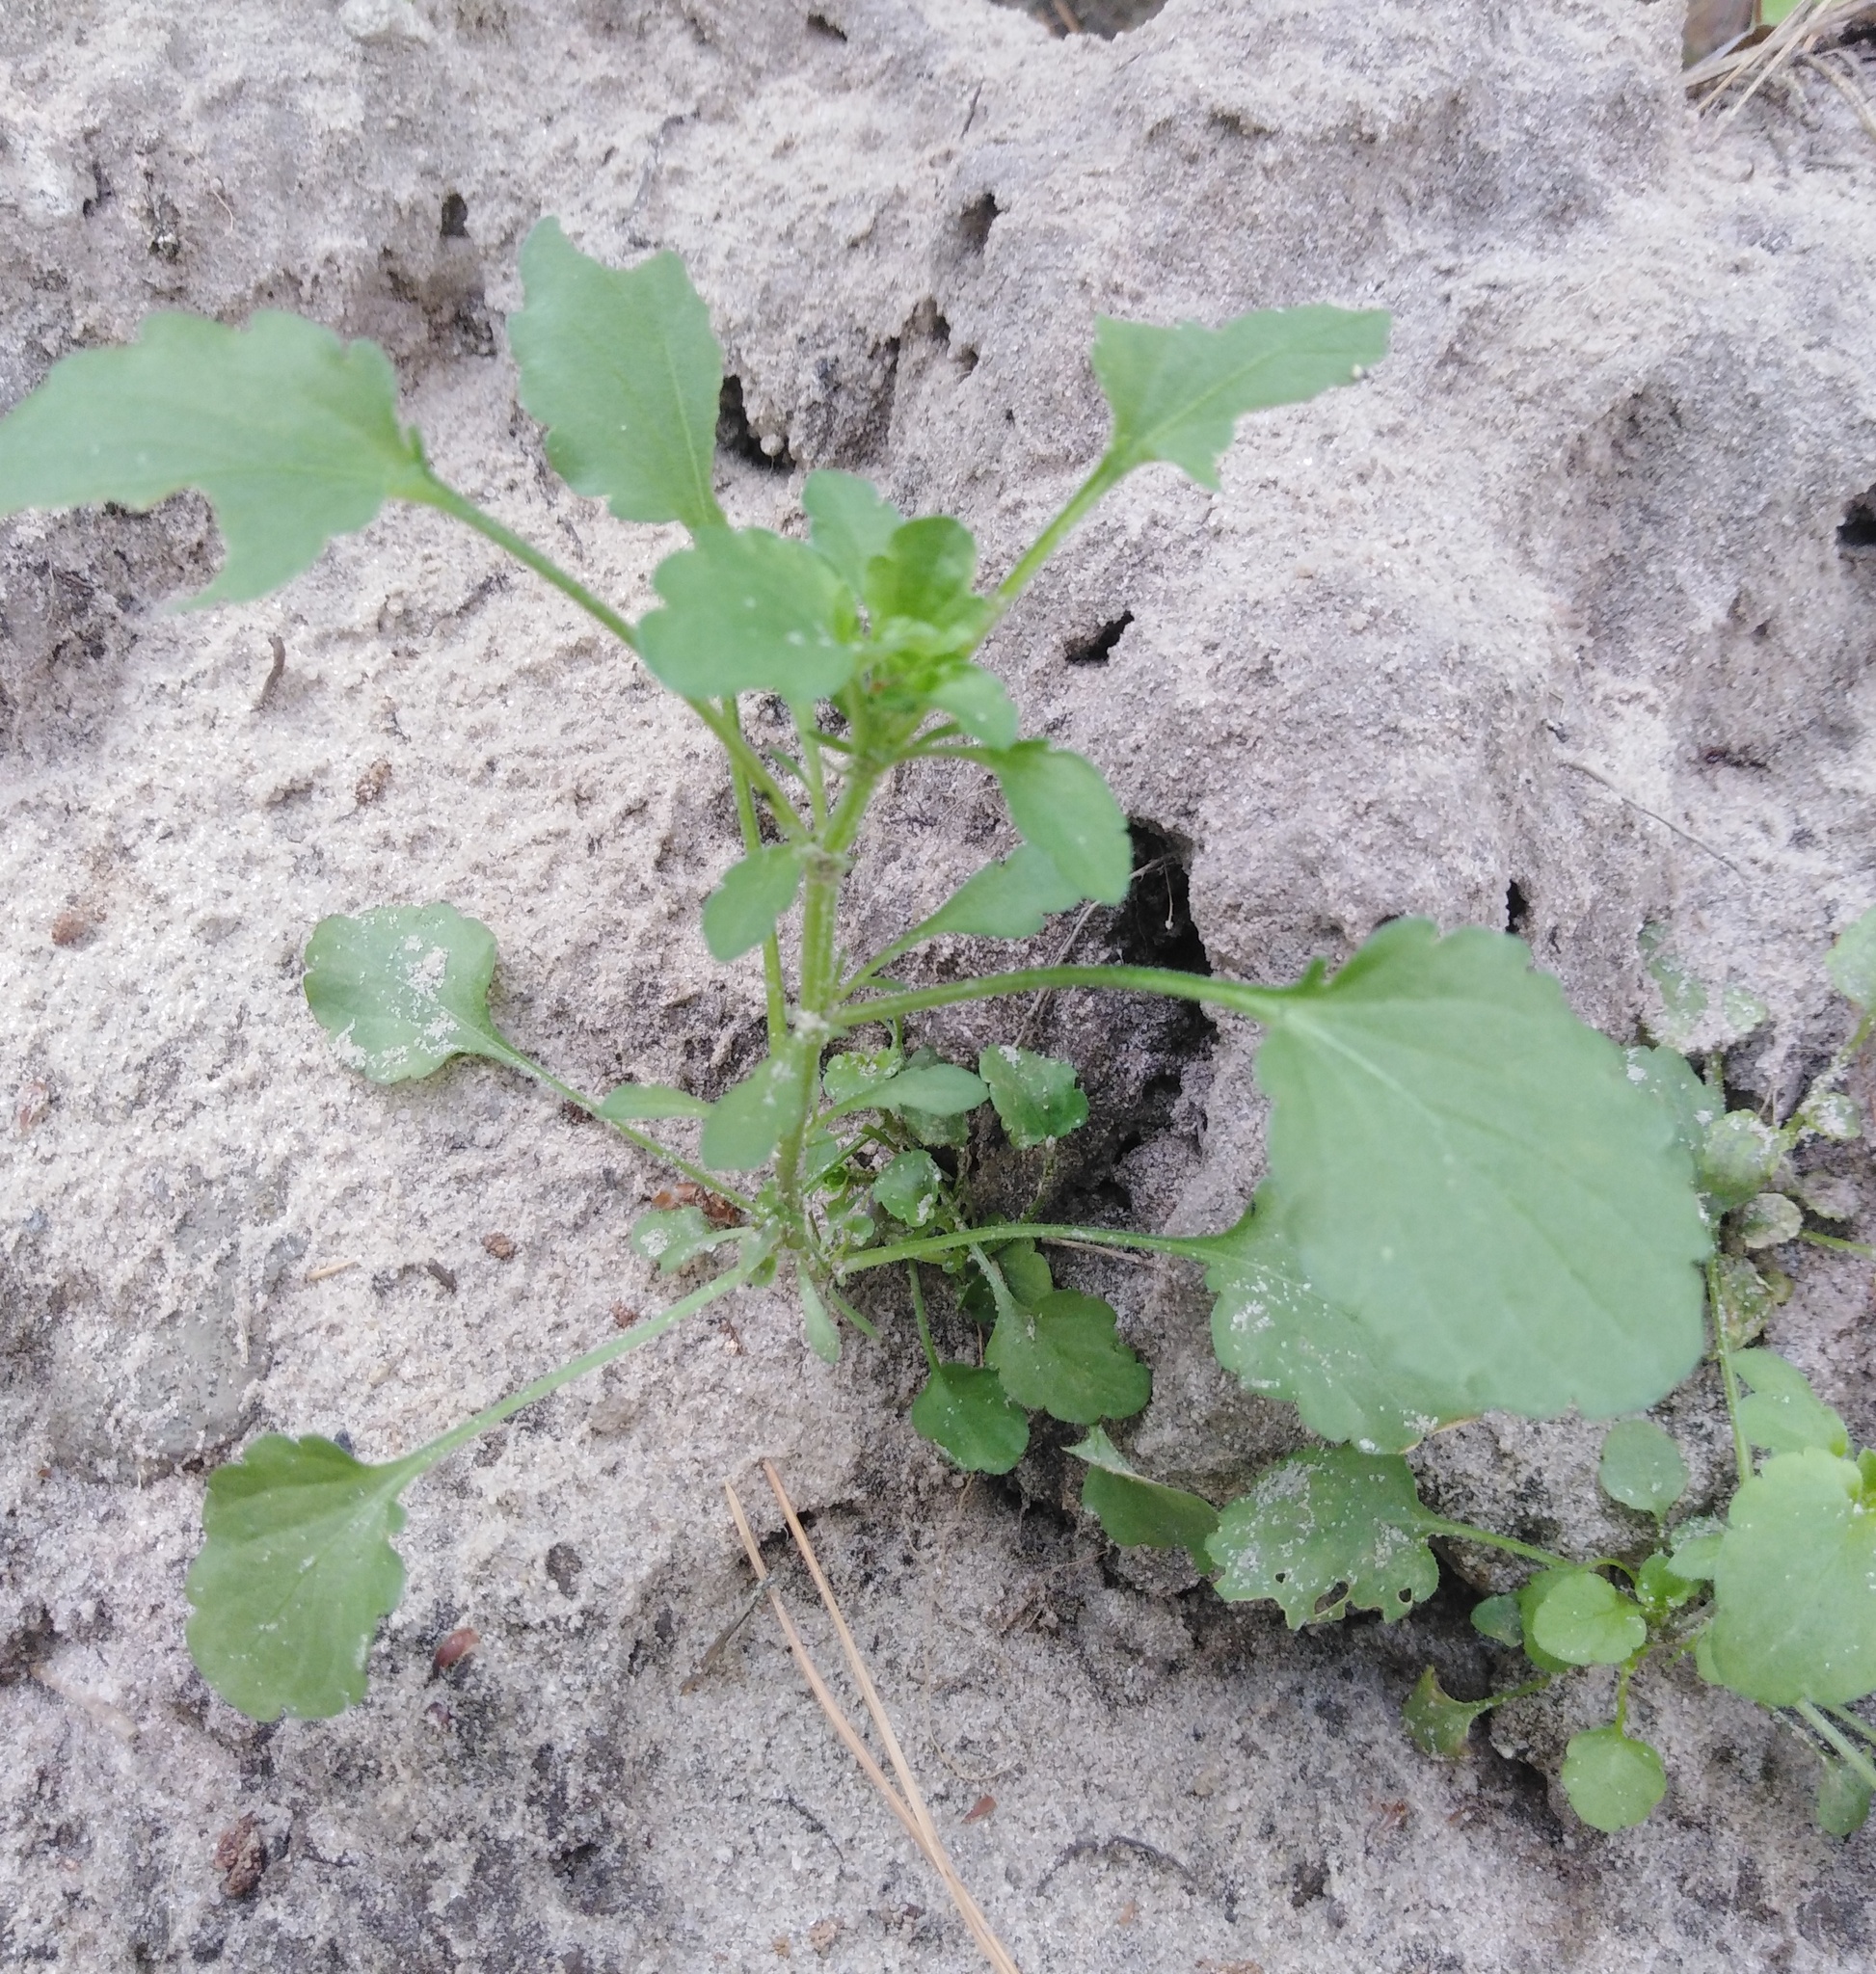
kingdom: Plantae
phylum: Tracheophyta
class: Magnoliopsida
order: Malpighiales
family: Violaceae
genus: Viola
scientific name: Viola arvensis
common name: Field pansy
